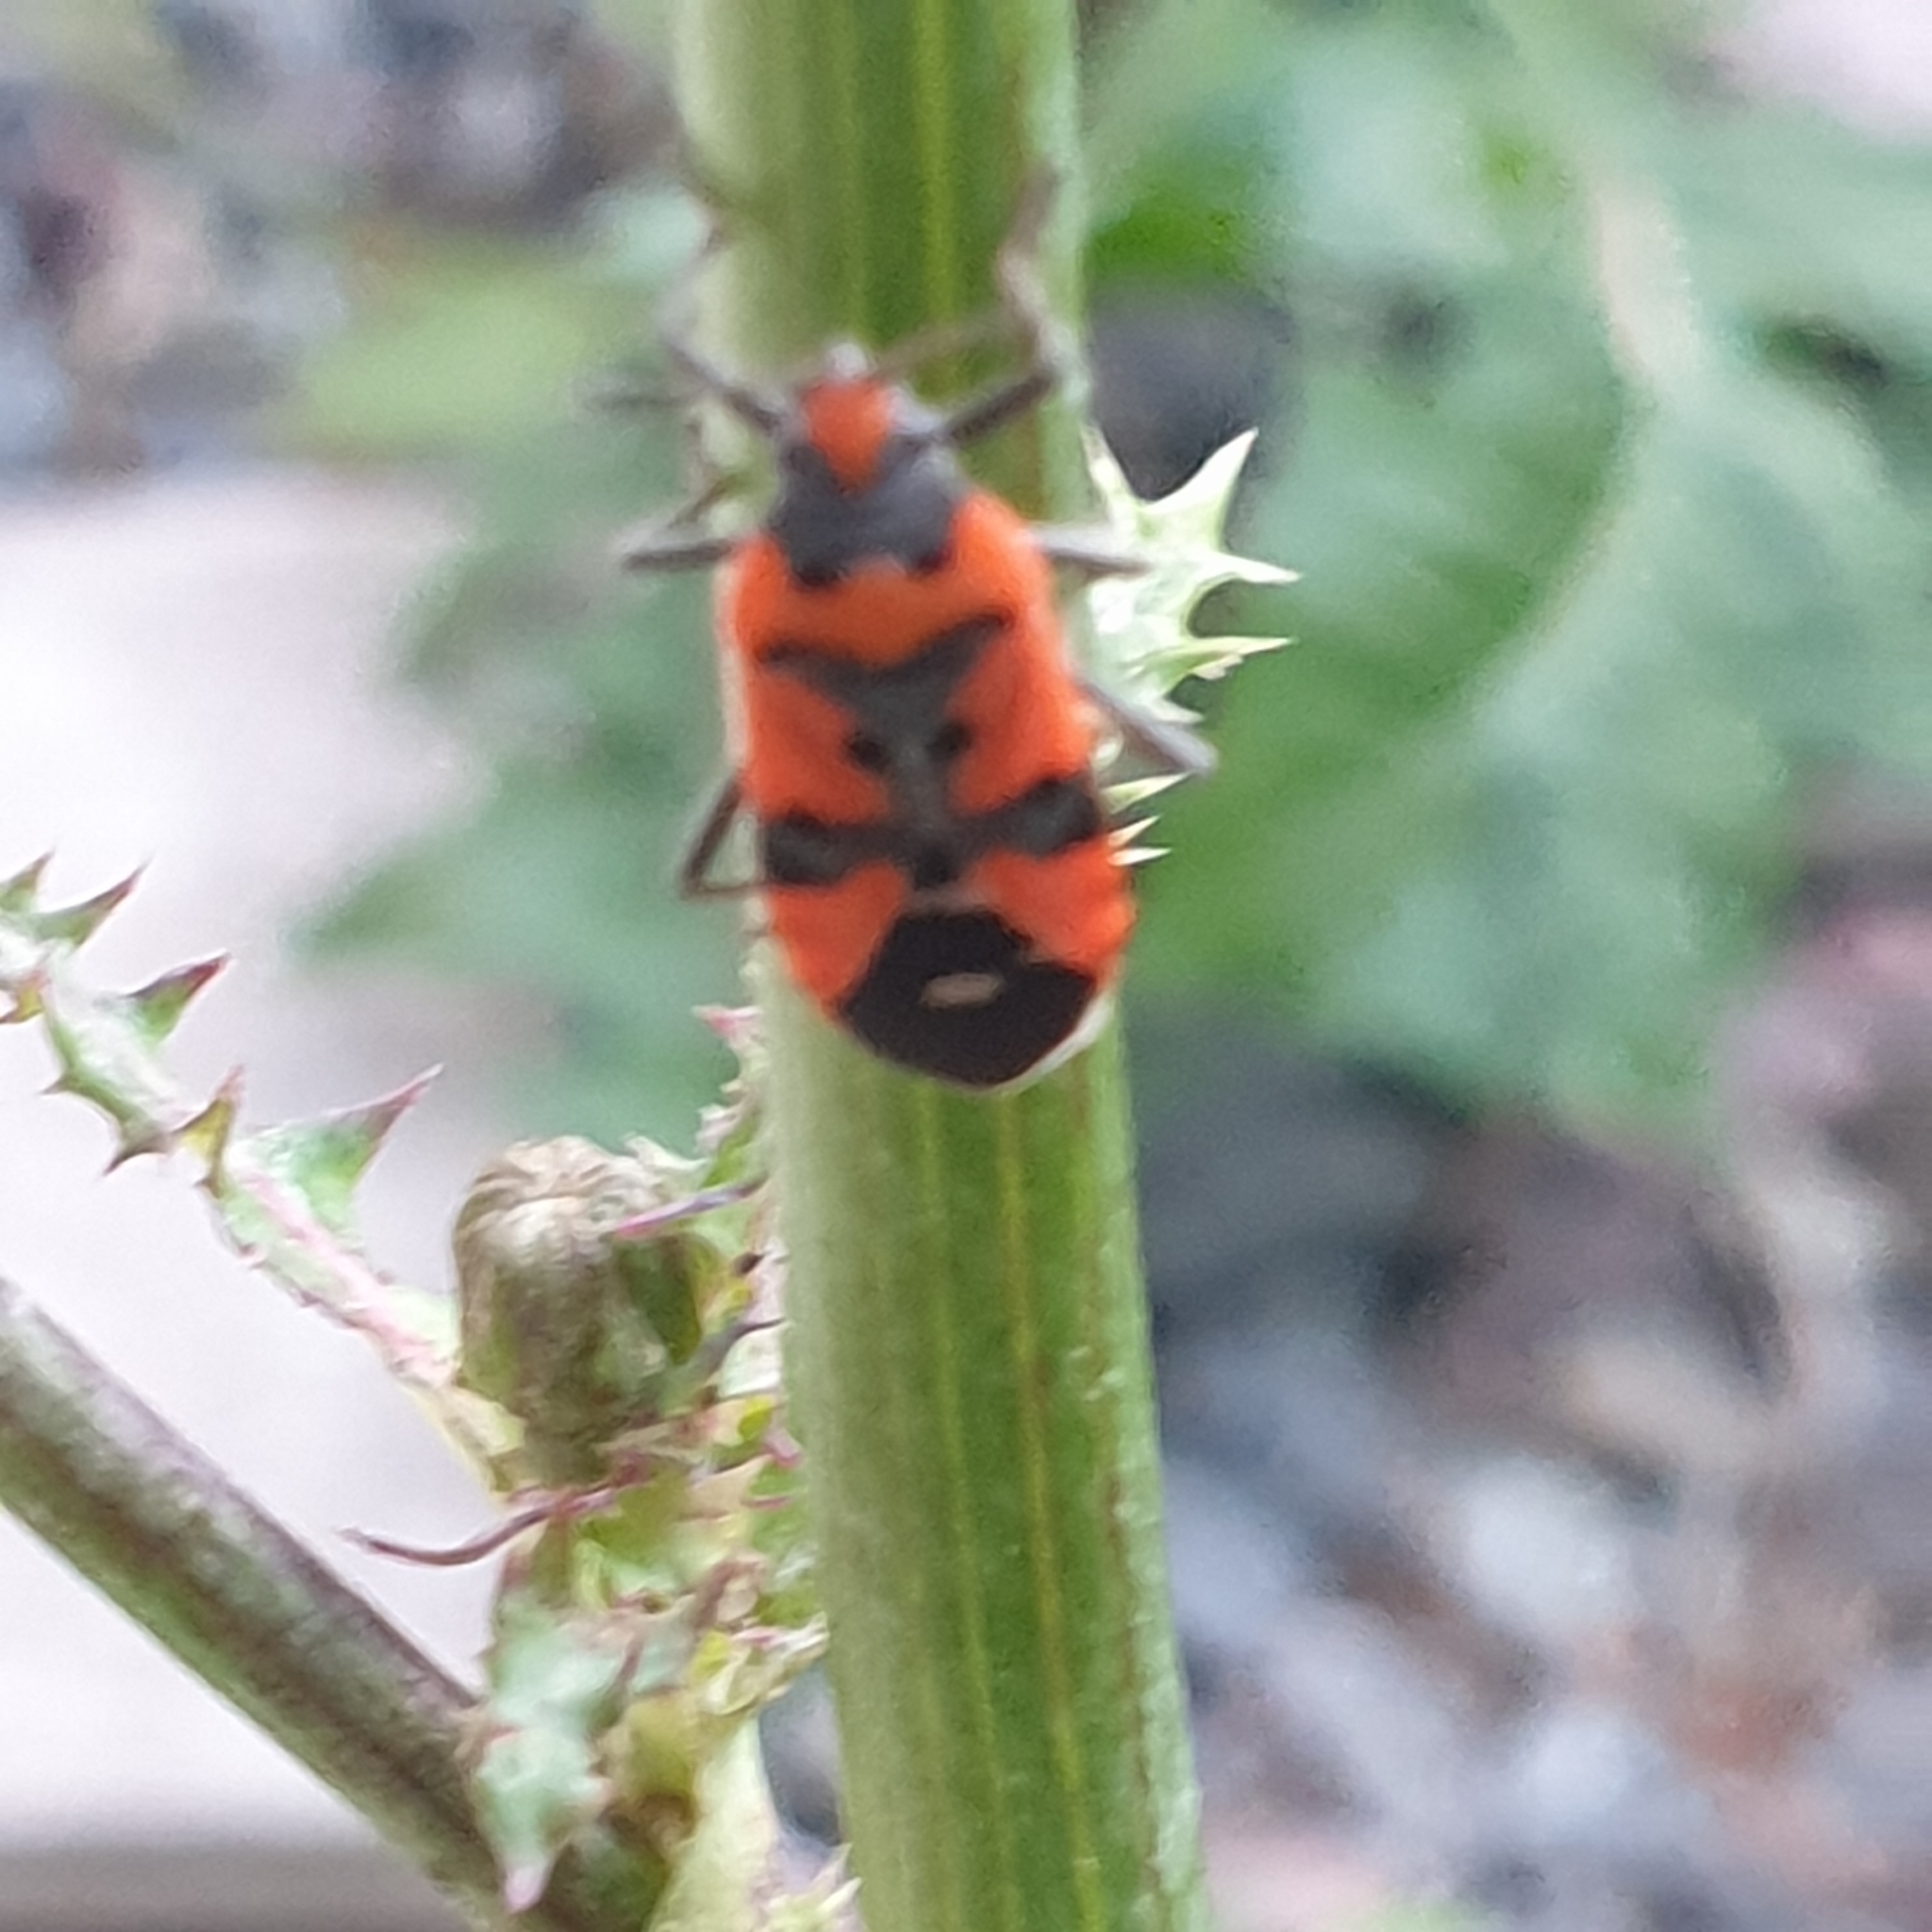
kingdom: Animalia
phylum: Arthropoda
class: Insecta
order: Hemiptera
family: Lygaeidae
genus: Lygaeus
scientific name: Lygaeus equestris
